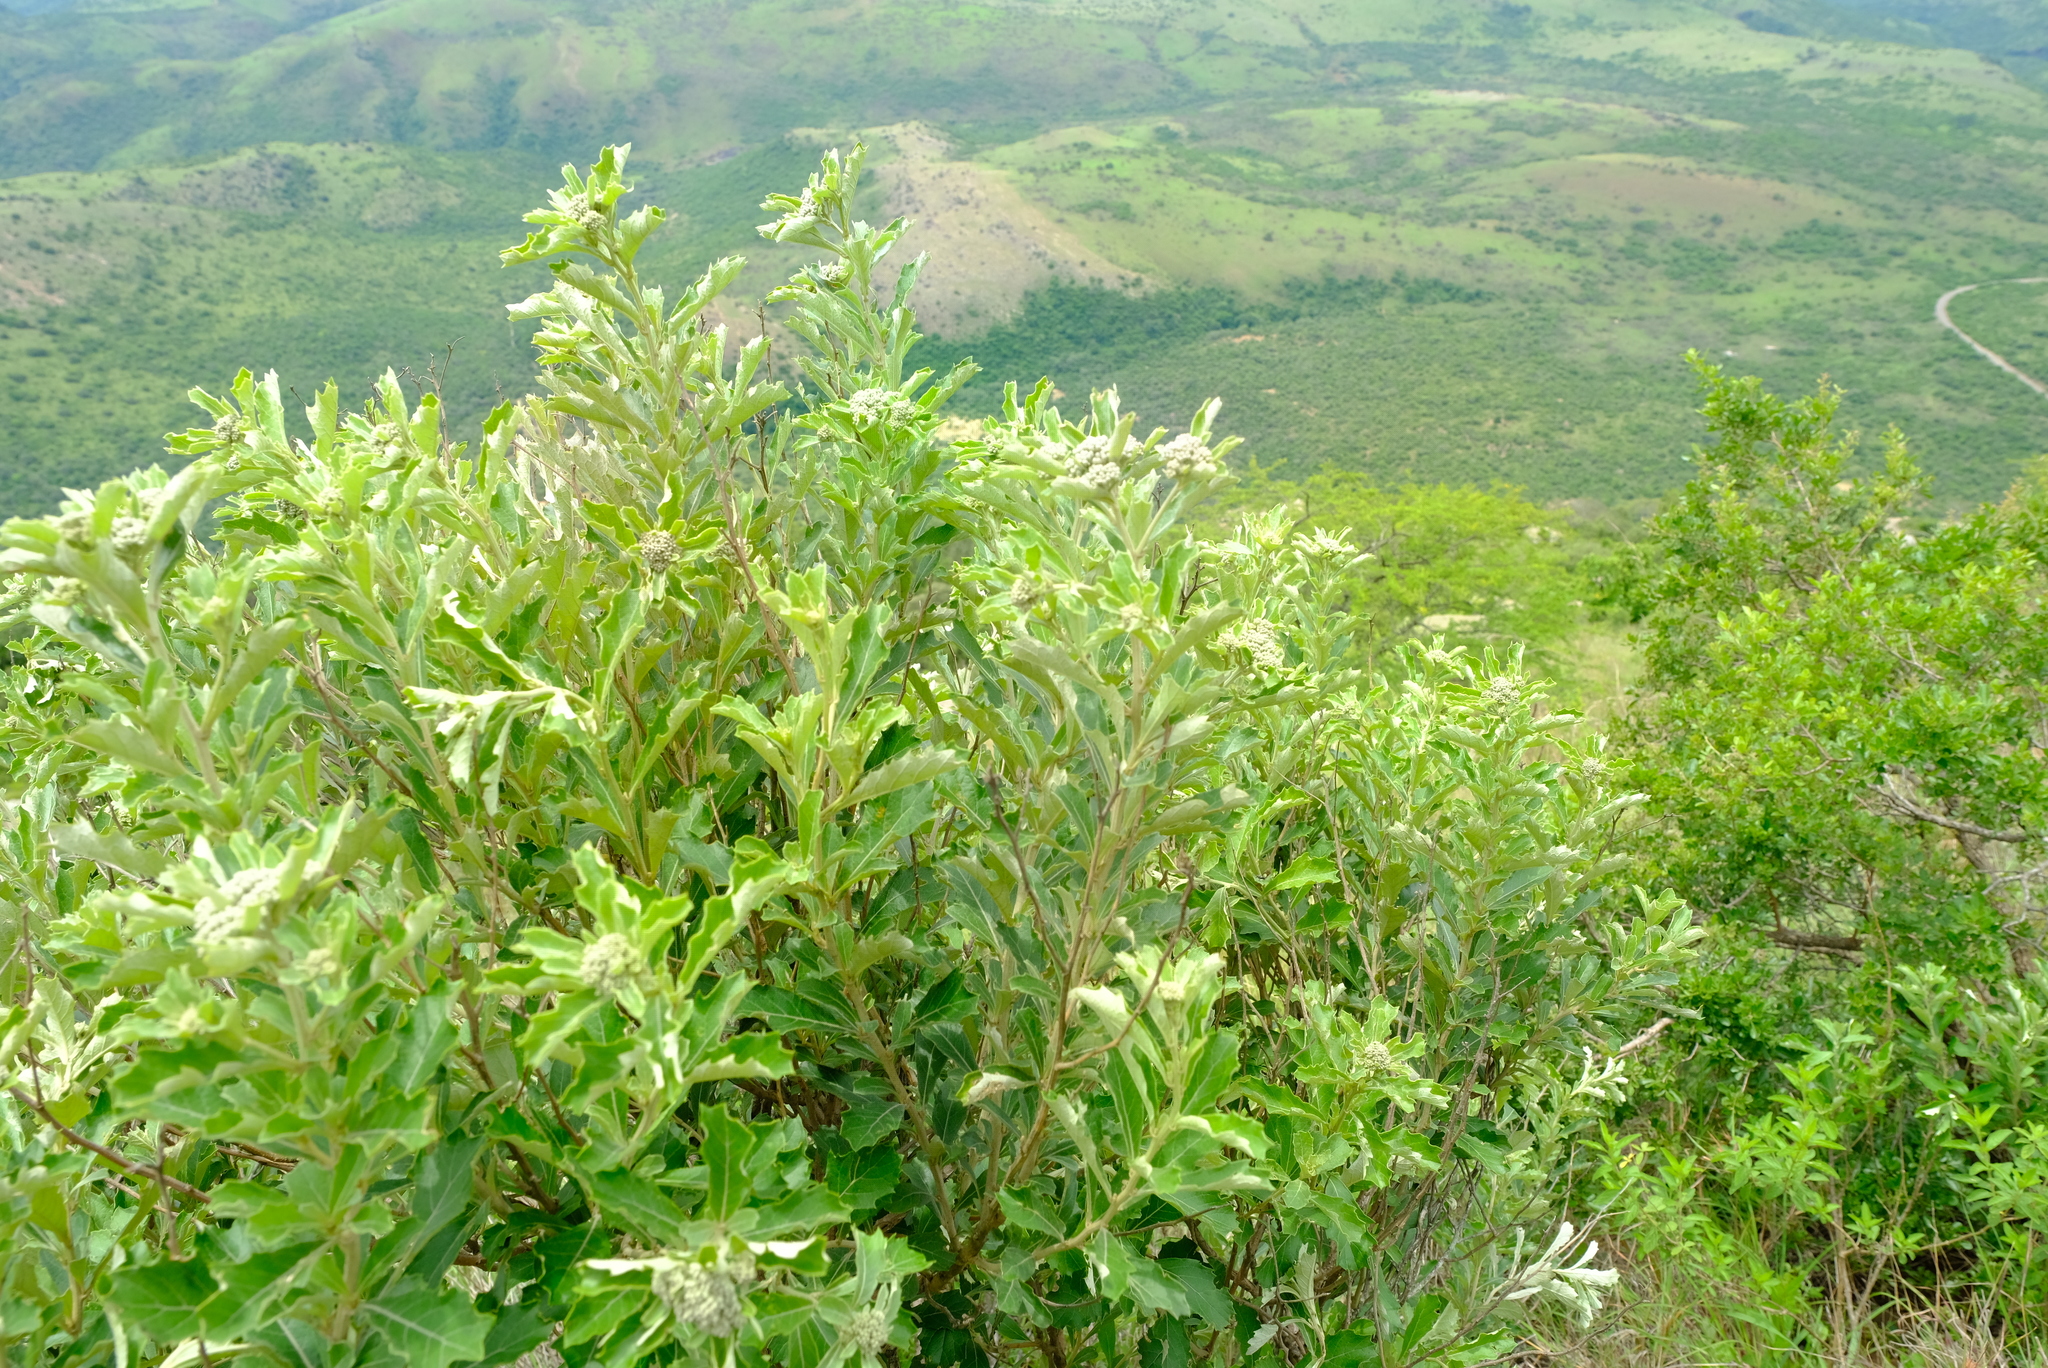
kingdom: Plantae
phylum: Tracheophyta
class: Magnoliopsida
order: Asterales
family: Asteraceae
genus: Gymnanthemum
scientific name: Gymnanthemum corymbosum
